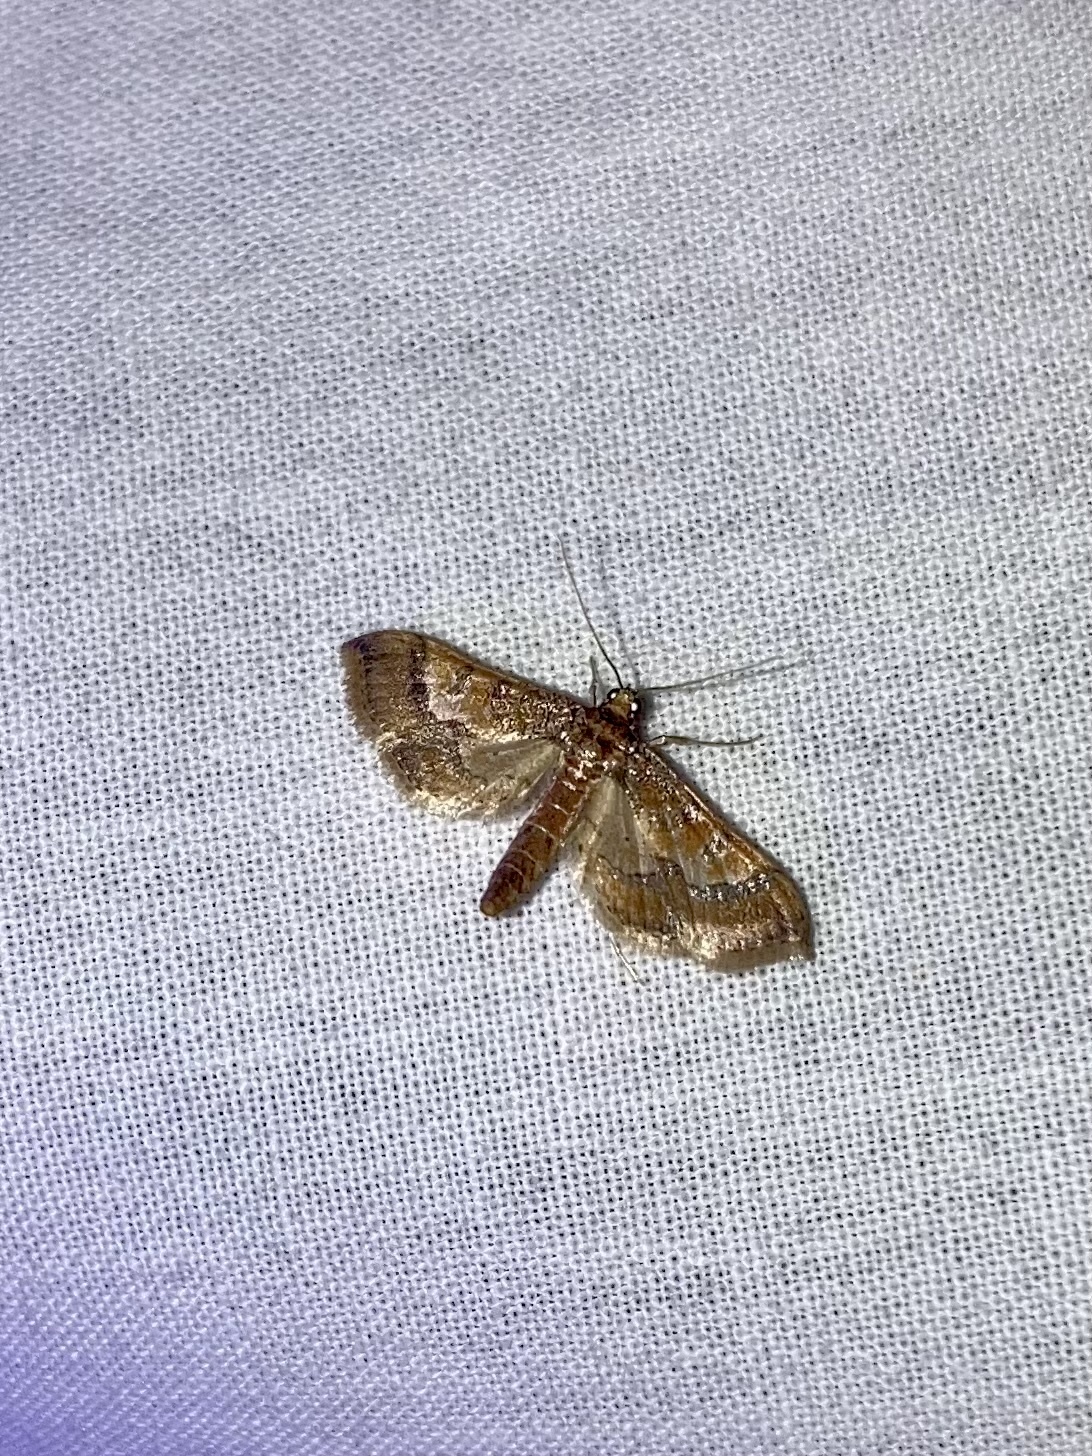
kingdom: Animalia
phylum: Arthropoda
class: Insecta
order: Lepidoptera
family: Crambidae
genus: Hydriris
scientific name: Hydriris ornatalis
